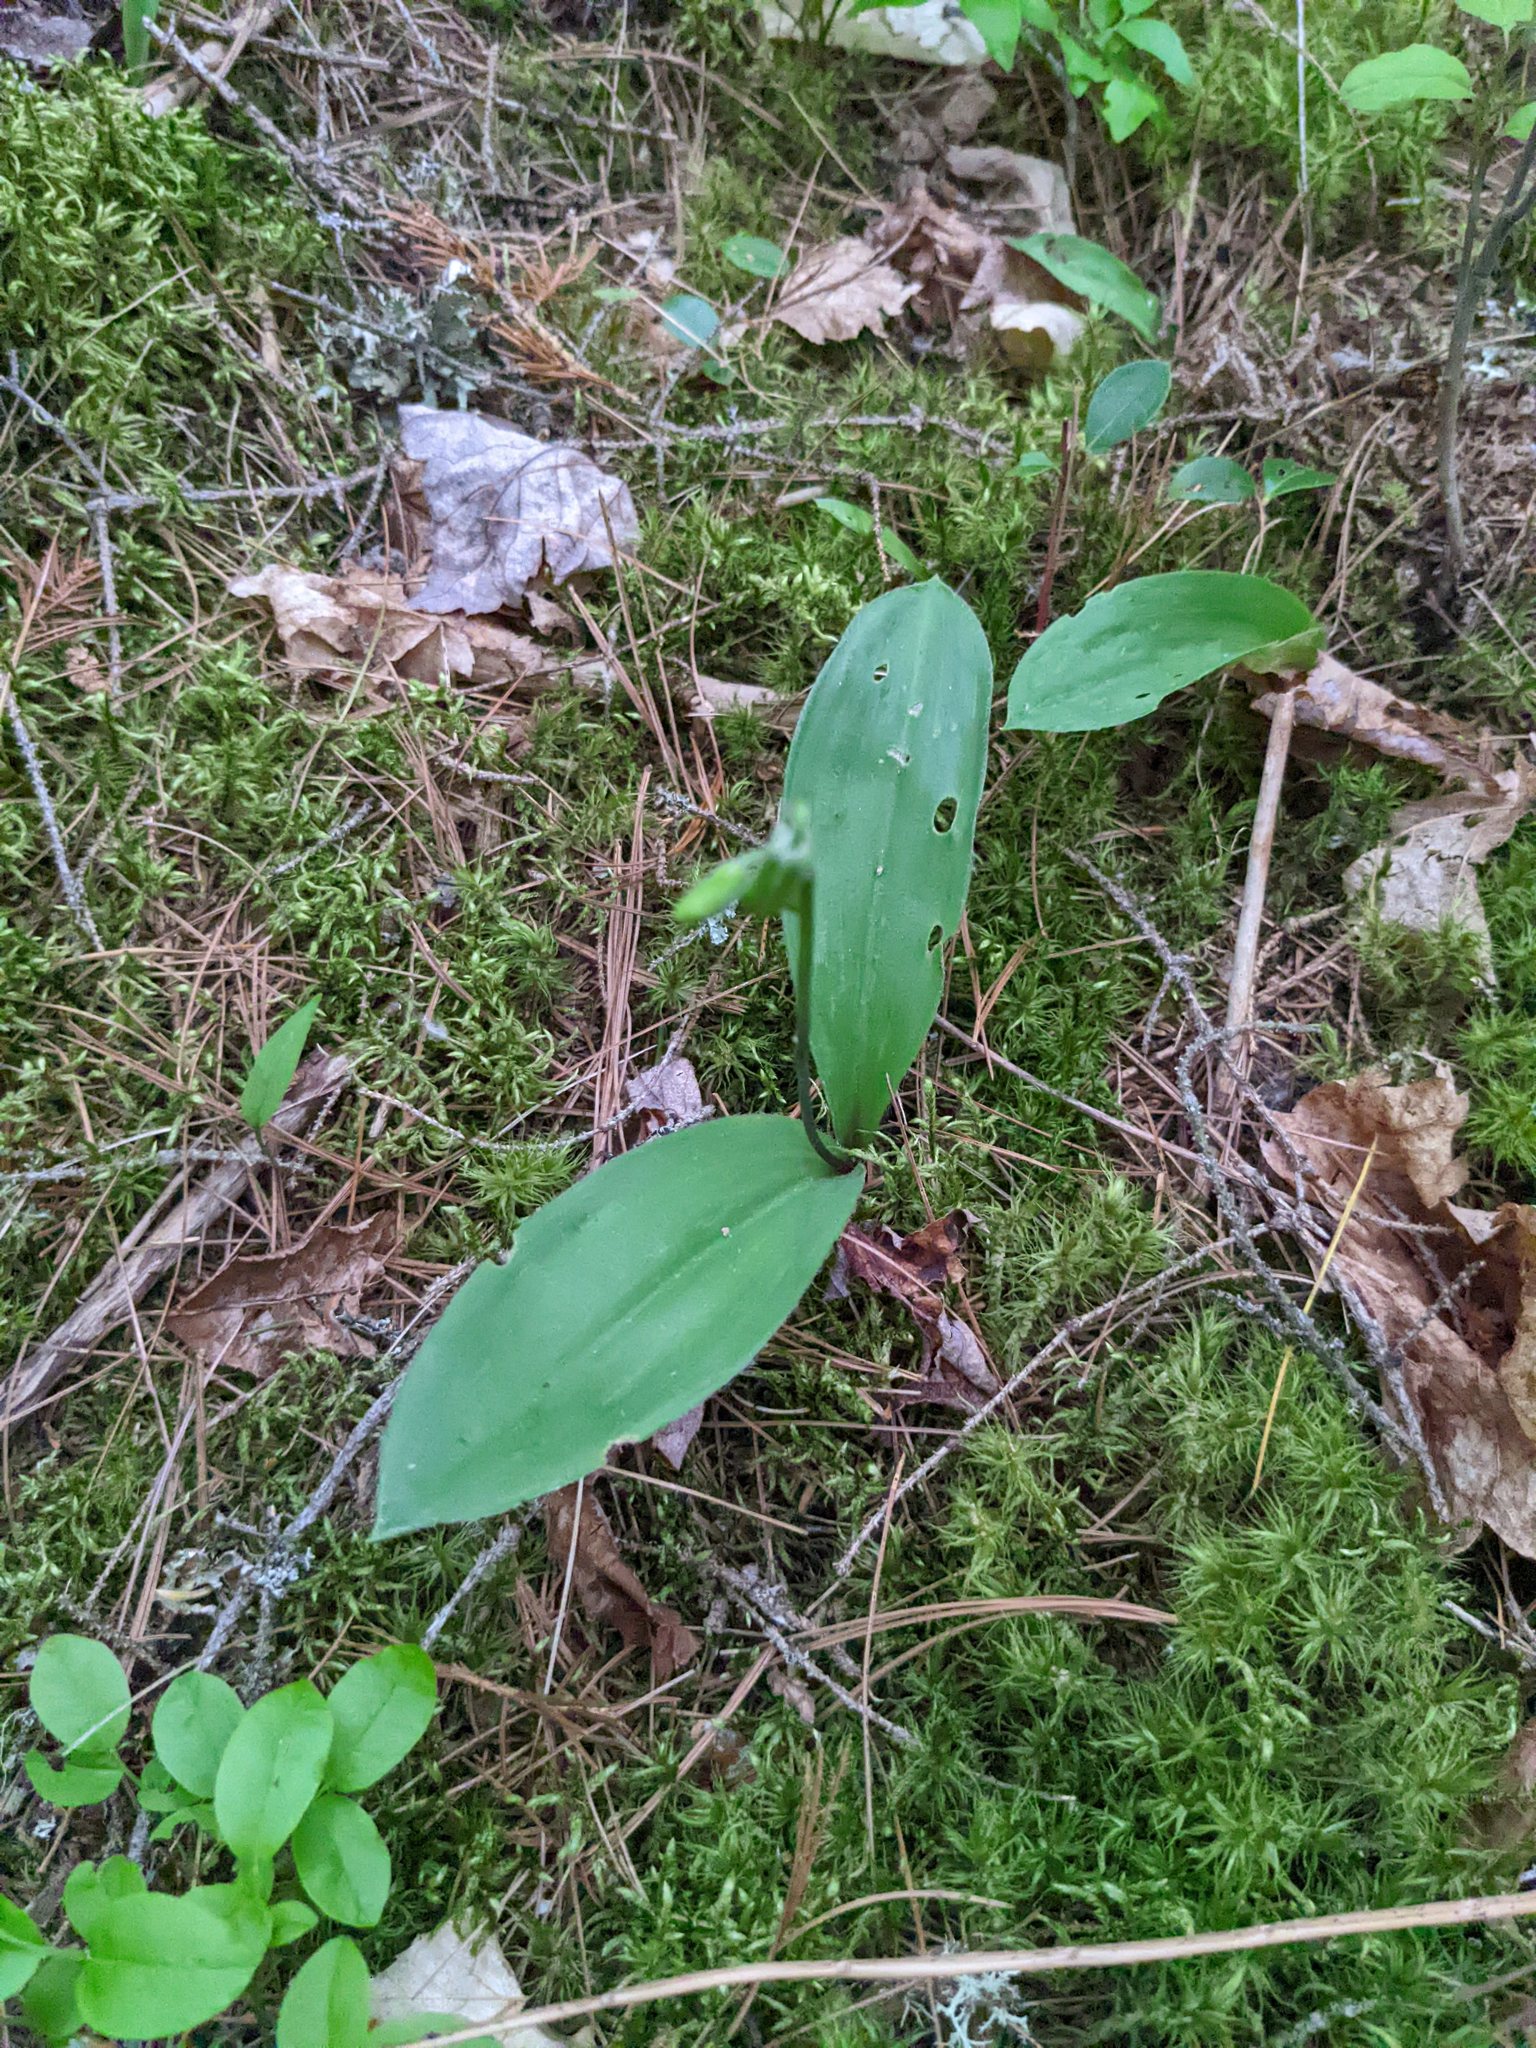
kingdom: Plantae
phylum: Tracheophyta
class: Liliopsida
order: Liliales
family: Liliaceae
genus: Clintonia
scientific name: Clintonia borealis
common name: Yellow clintonia
